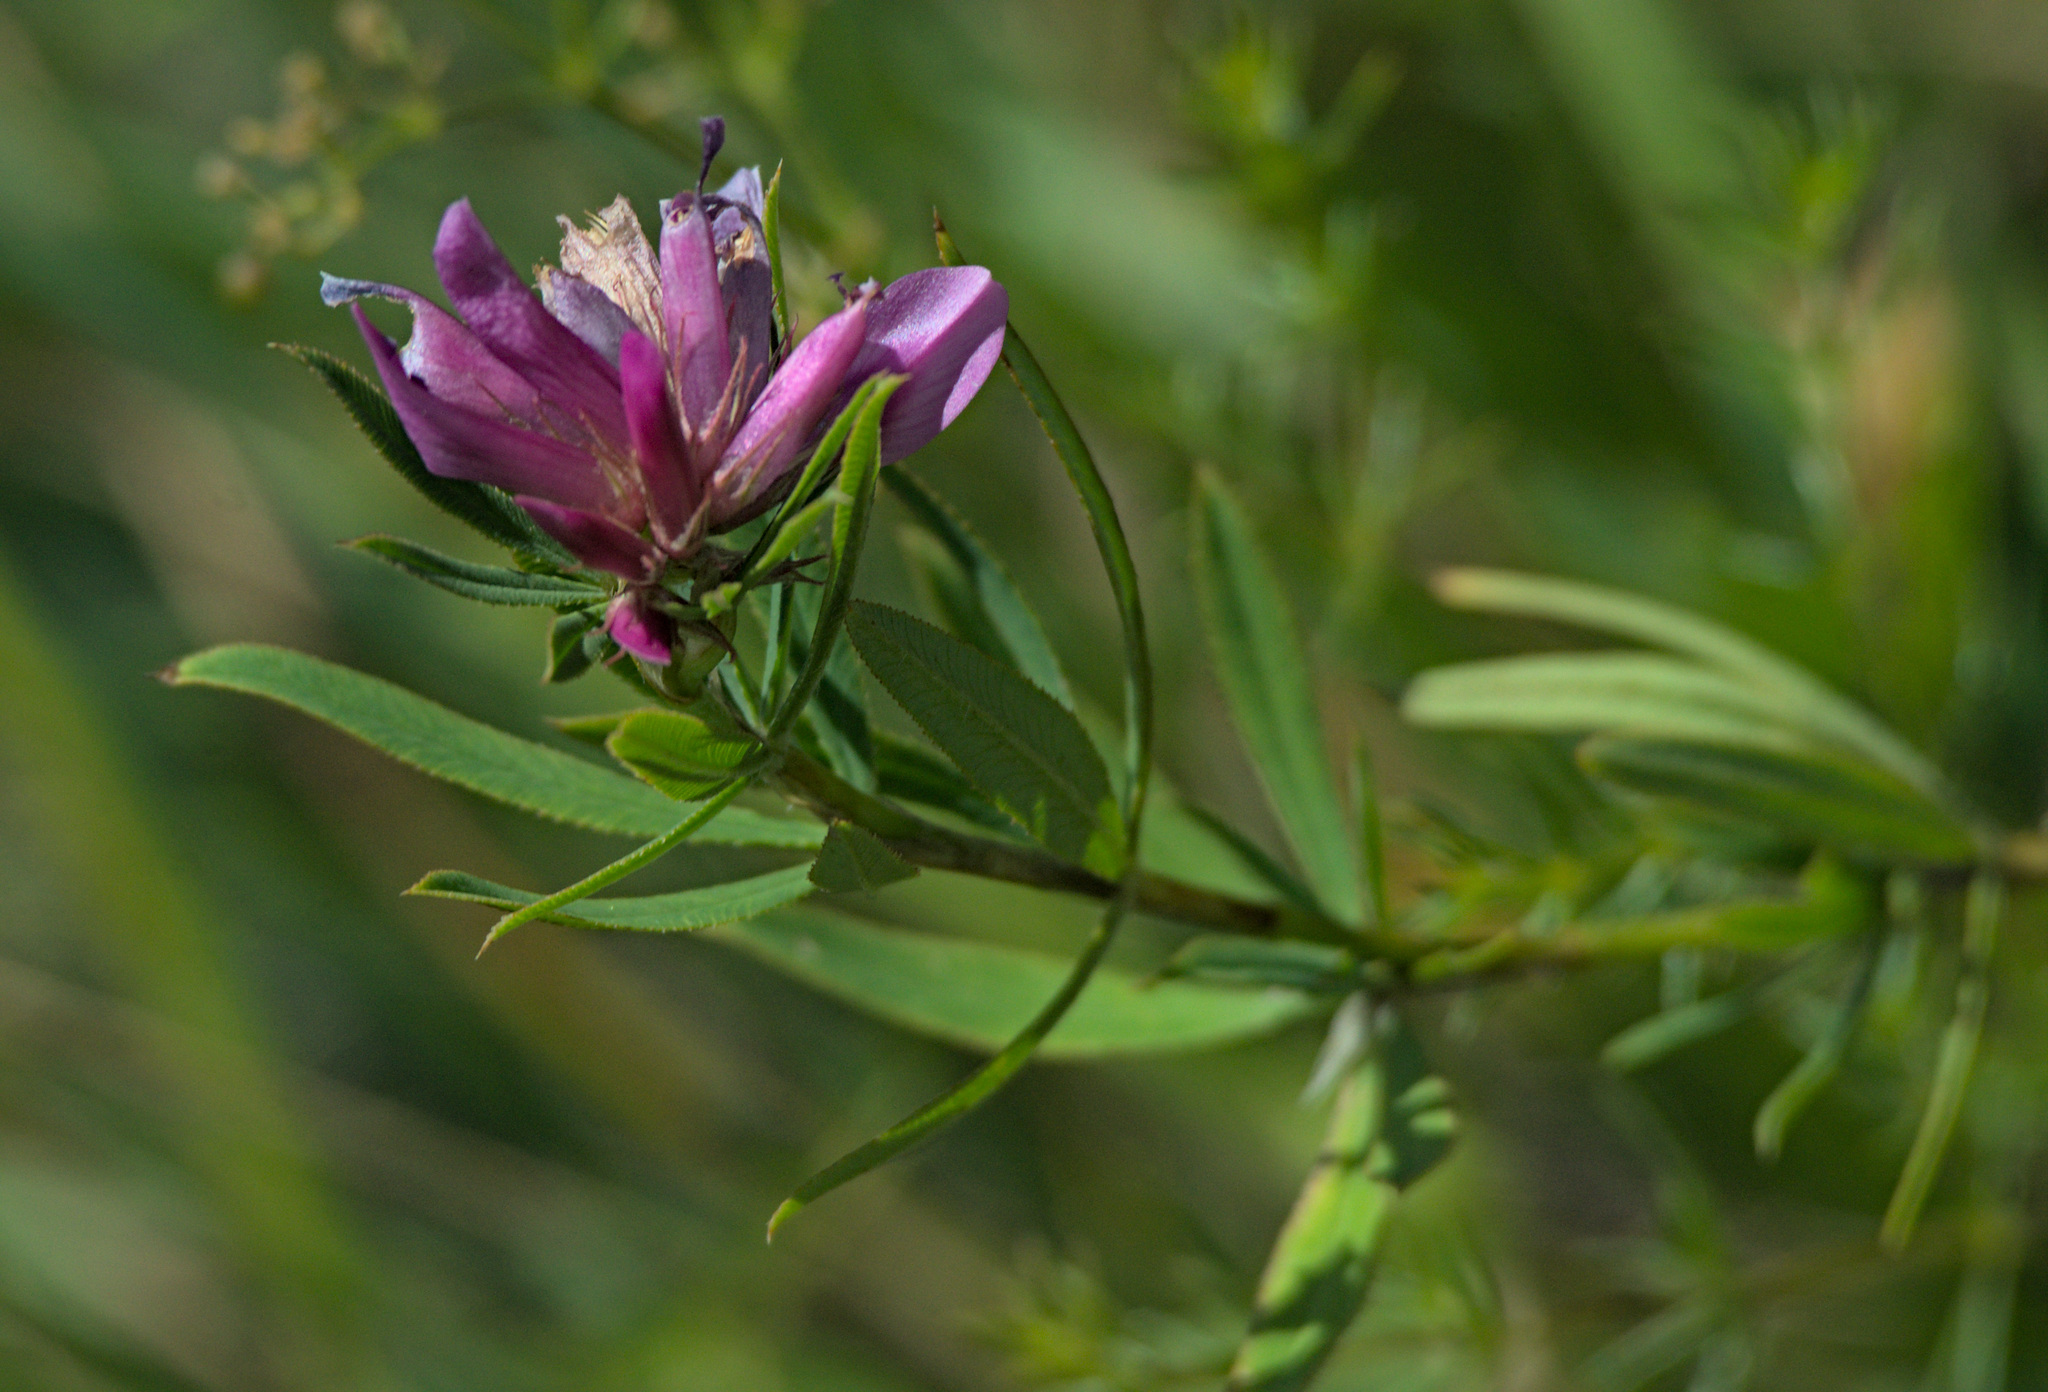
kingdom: Plantae
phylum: Tracheophyta
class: Magnoliopsida
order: Fabales
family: Fabaceae
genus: Trifolium
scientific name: Trifolium lupinaster
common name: Lupine clover
